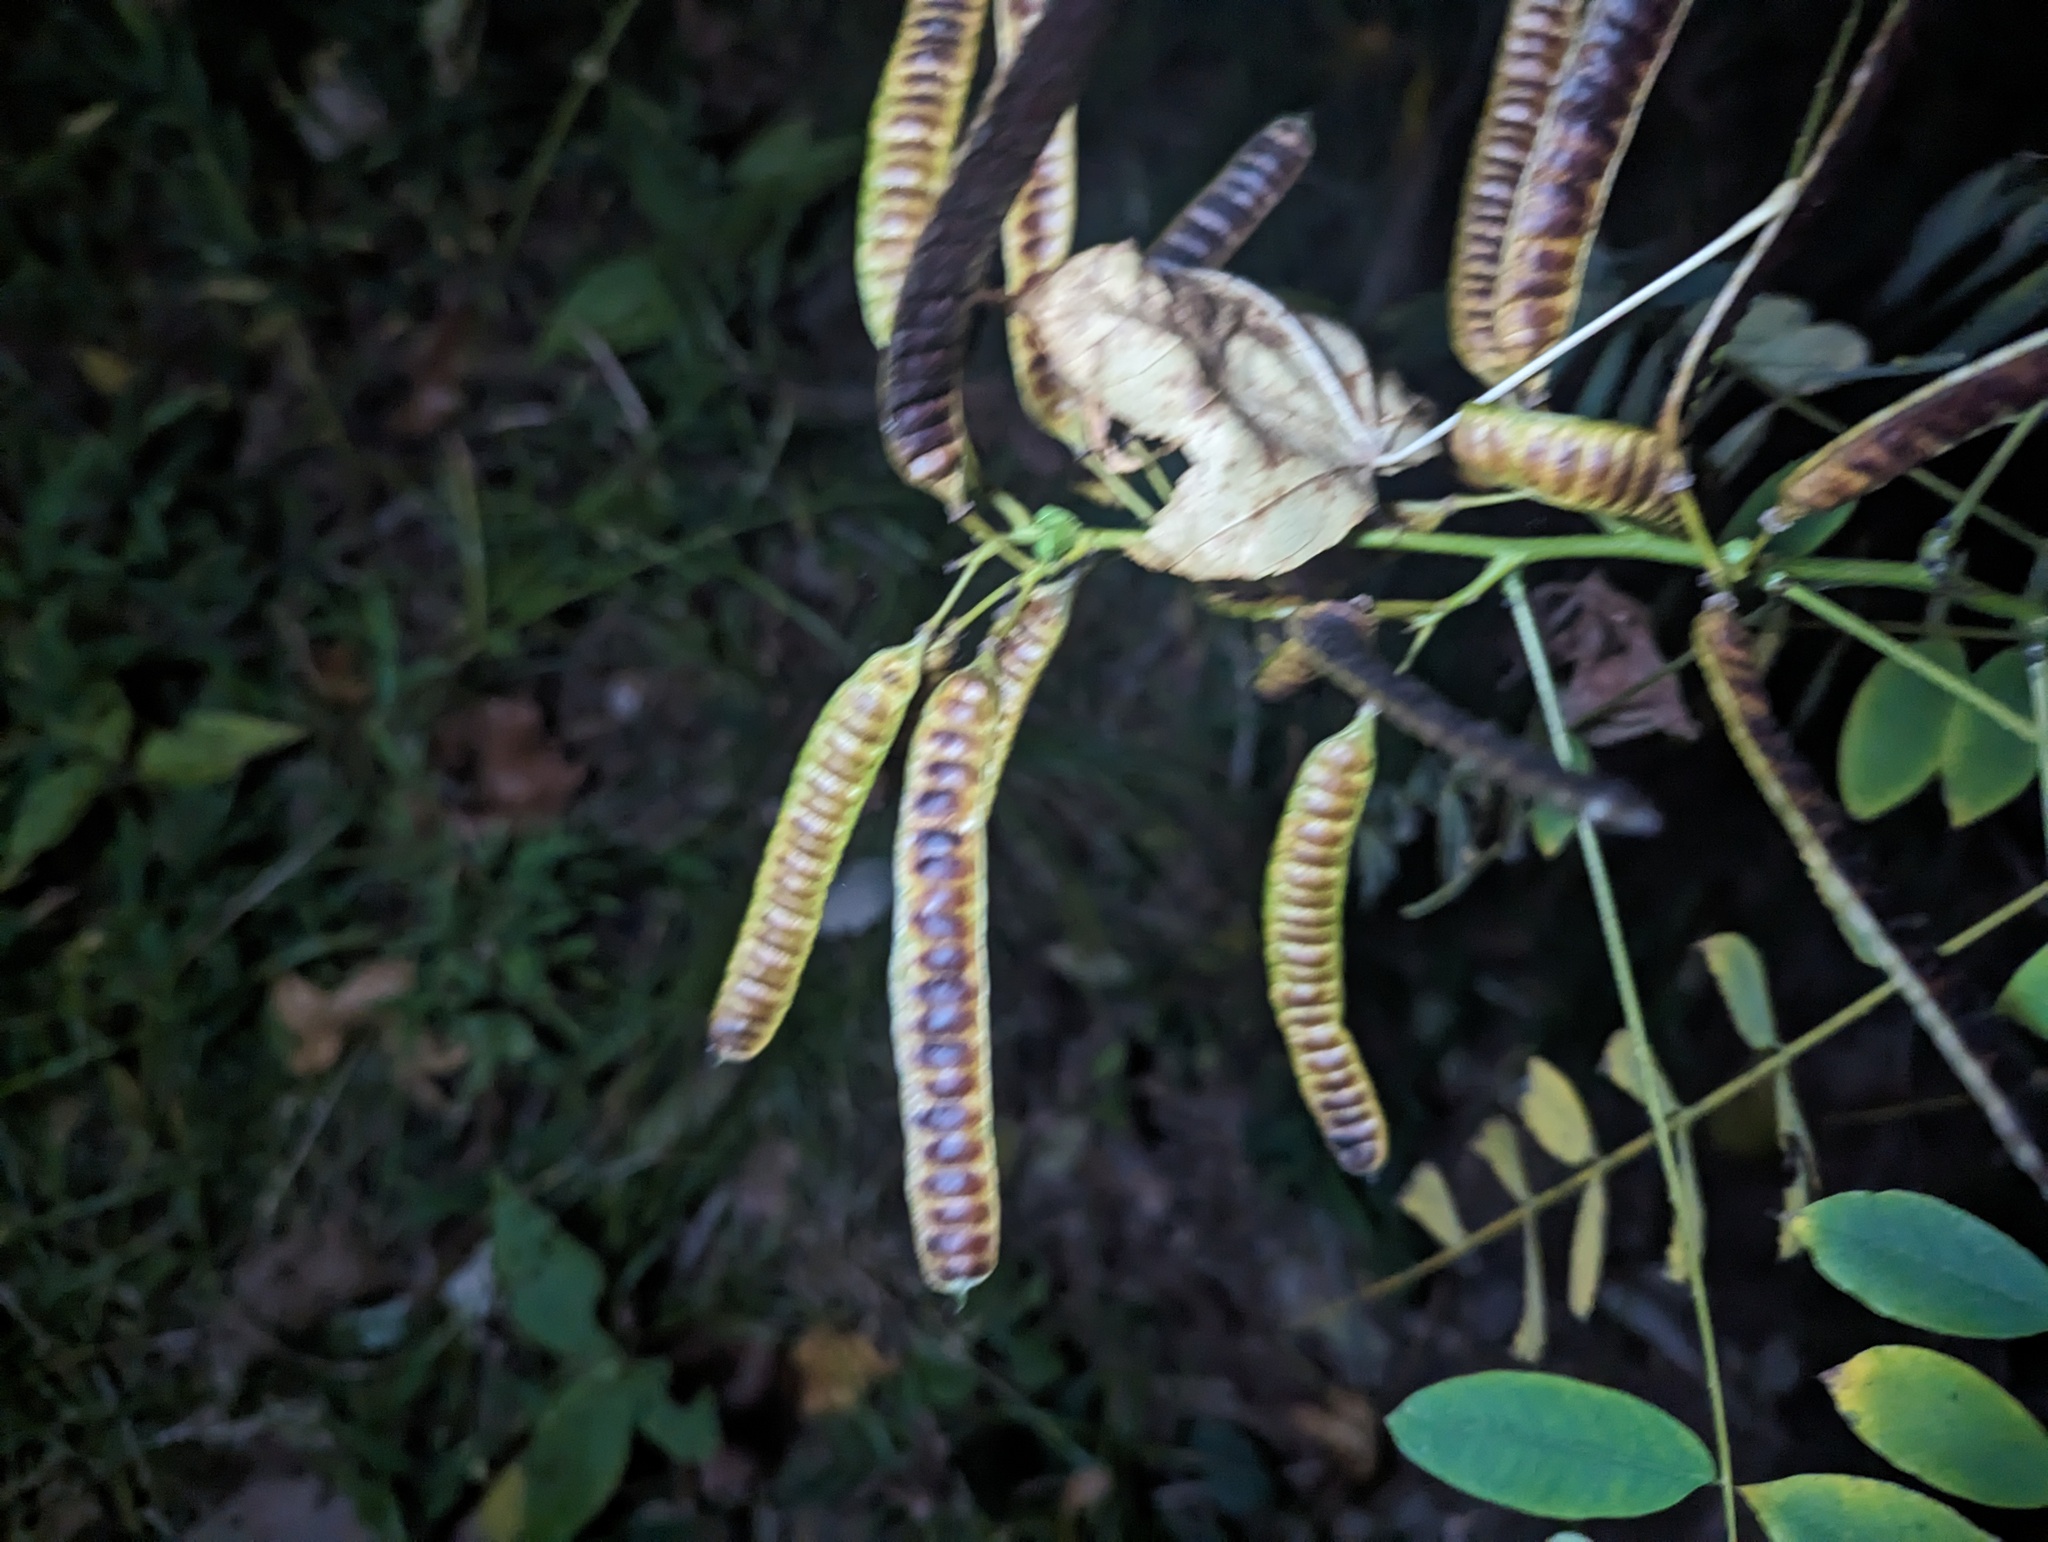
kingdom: Plantae
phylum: Tracheophyta
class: Magnoliopsida
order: Fabales
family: Fabaceae
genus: Senna
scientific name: Senna marilandica
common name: American senna
